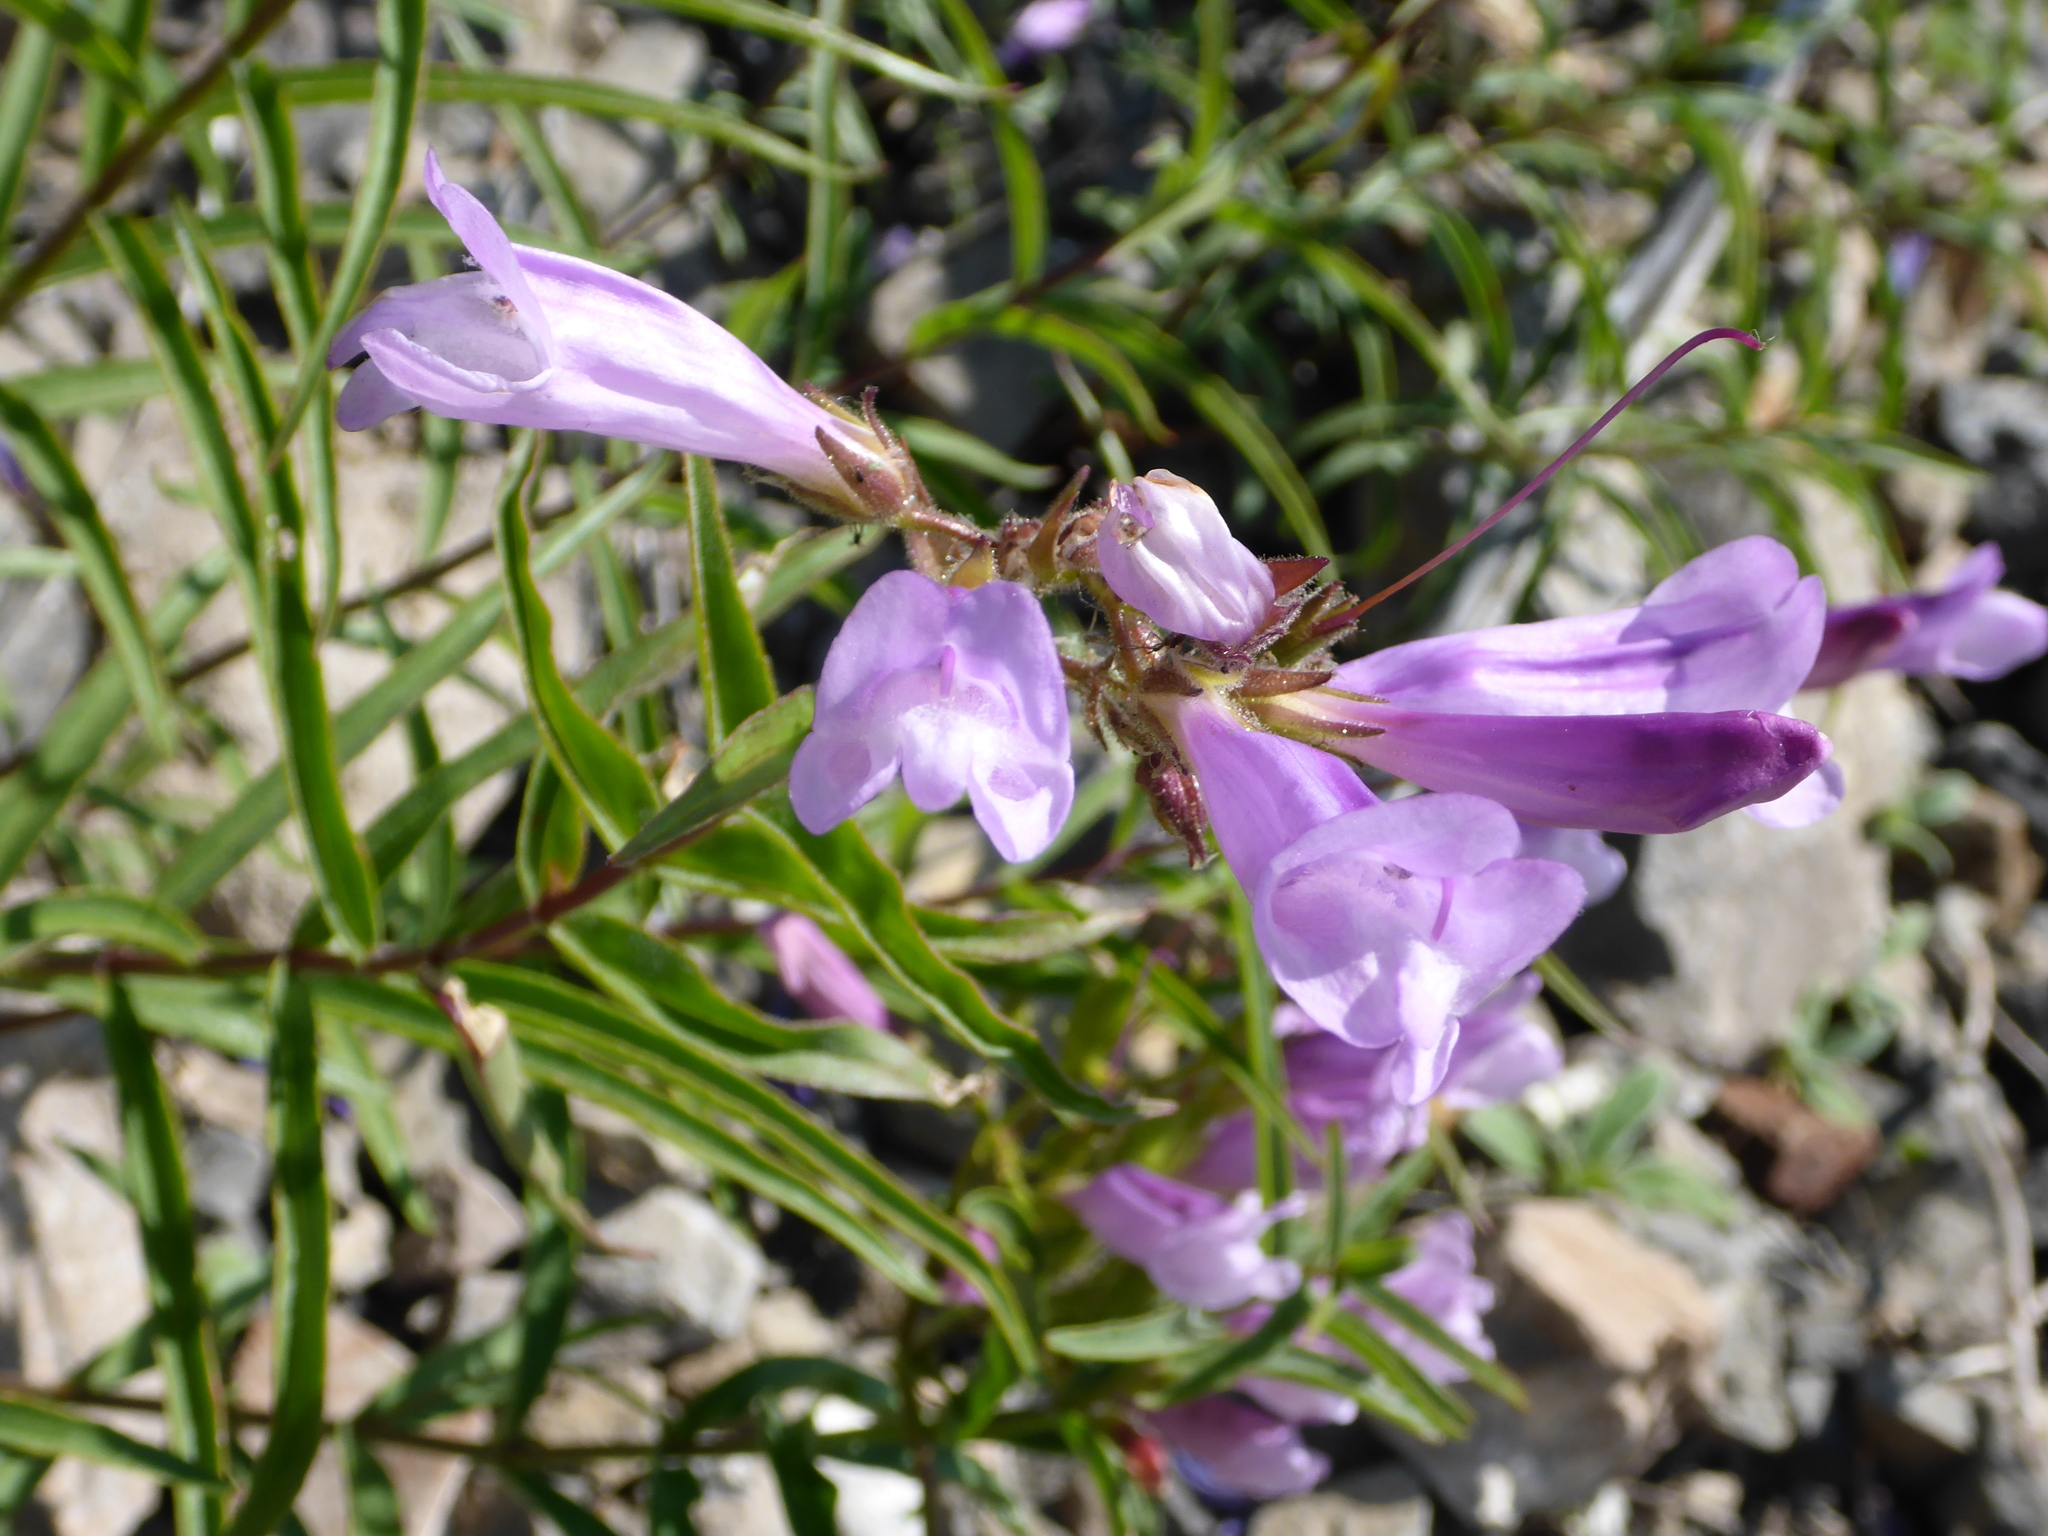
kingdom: Plantae
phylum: Tracheophyta
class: Magnoliopsida
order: Lamiales
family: Plantaginaceae
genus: Penstemon
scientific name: Penstemon lyalli
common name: Lyall's beardtongue
